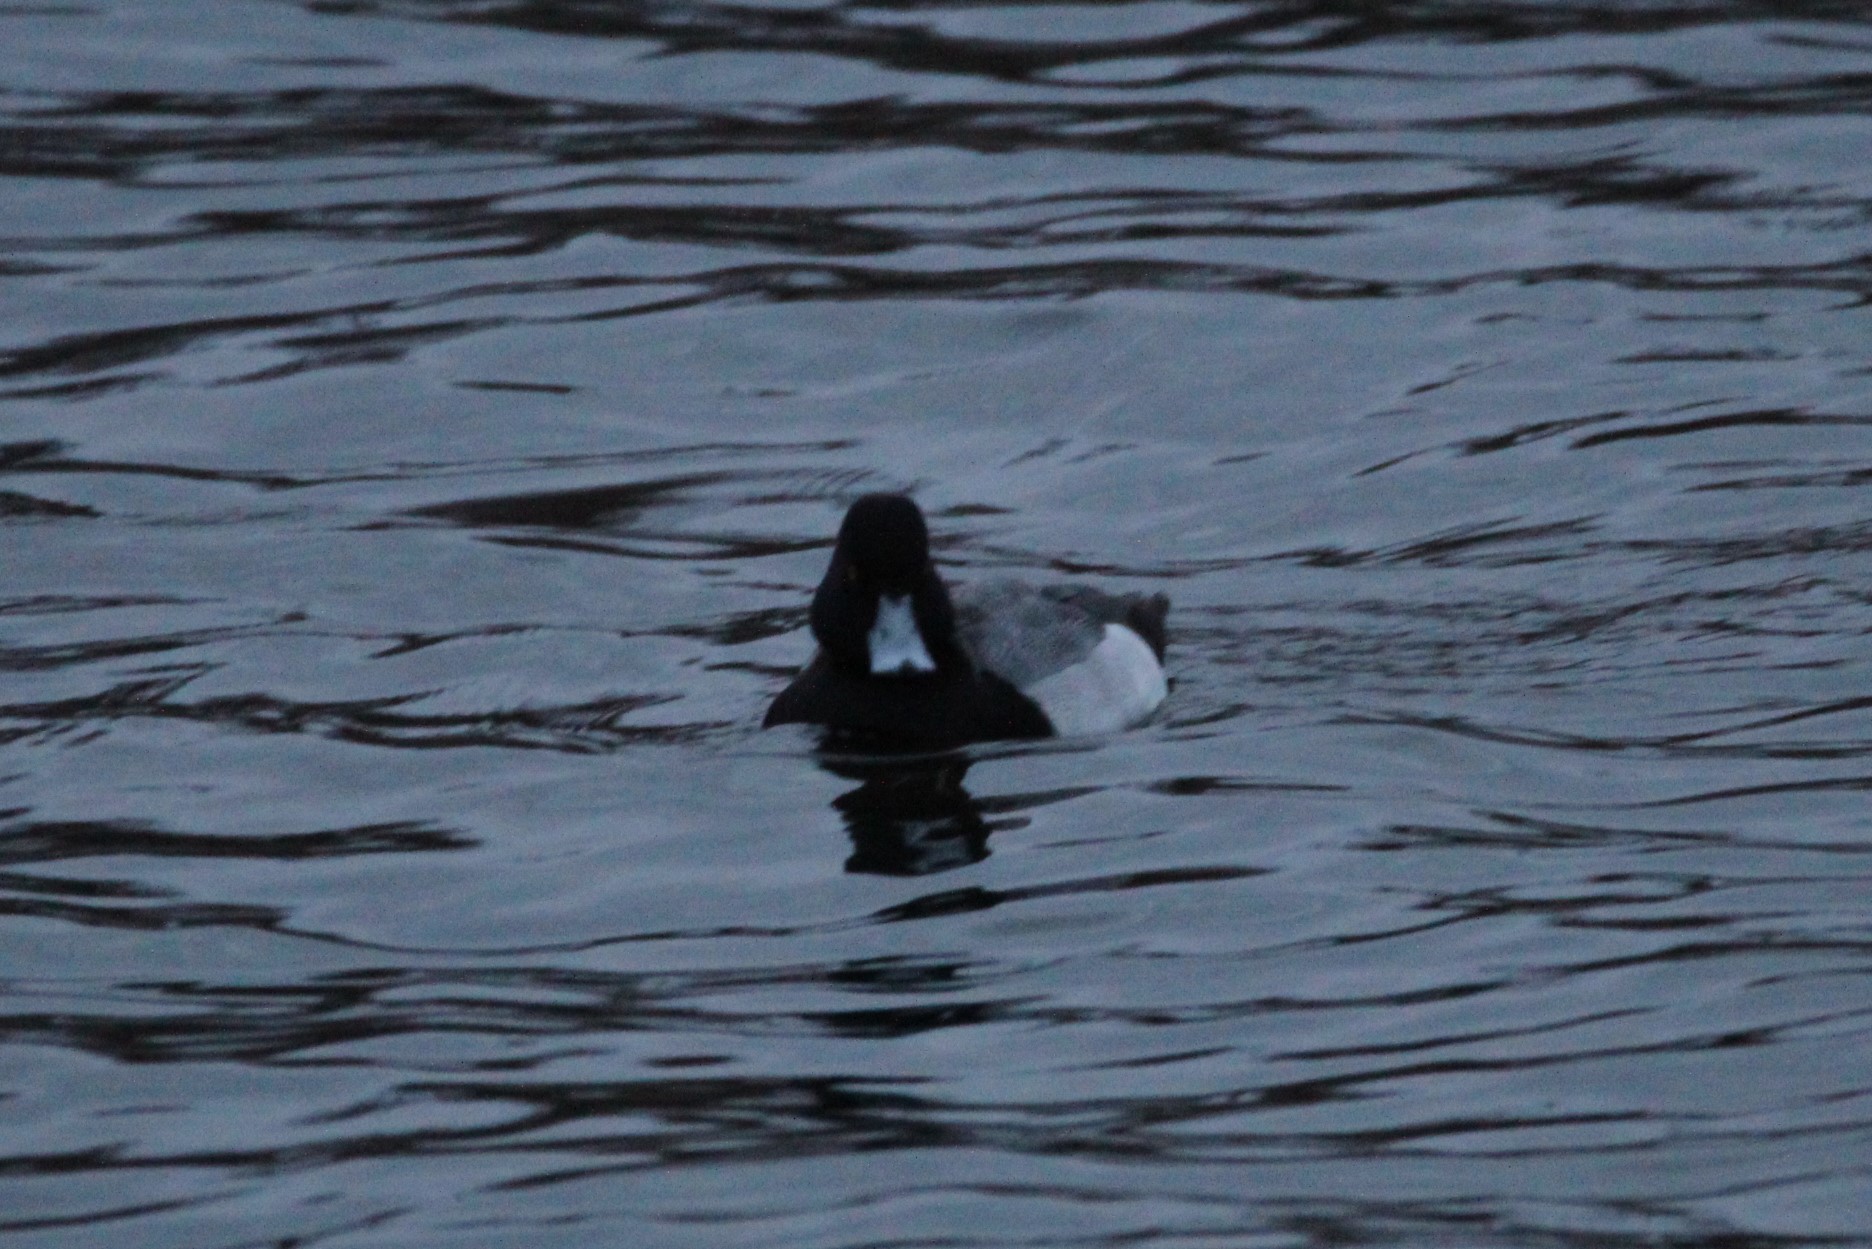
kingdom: Animalia
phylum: Chordata
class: Aves
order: Anseriformes
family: Anatidae
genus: Aythya
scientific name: Aythya affinis
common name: Lesser scaup
